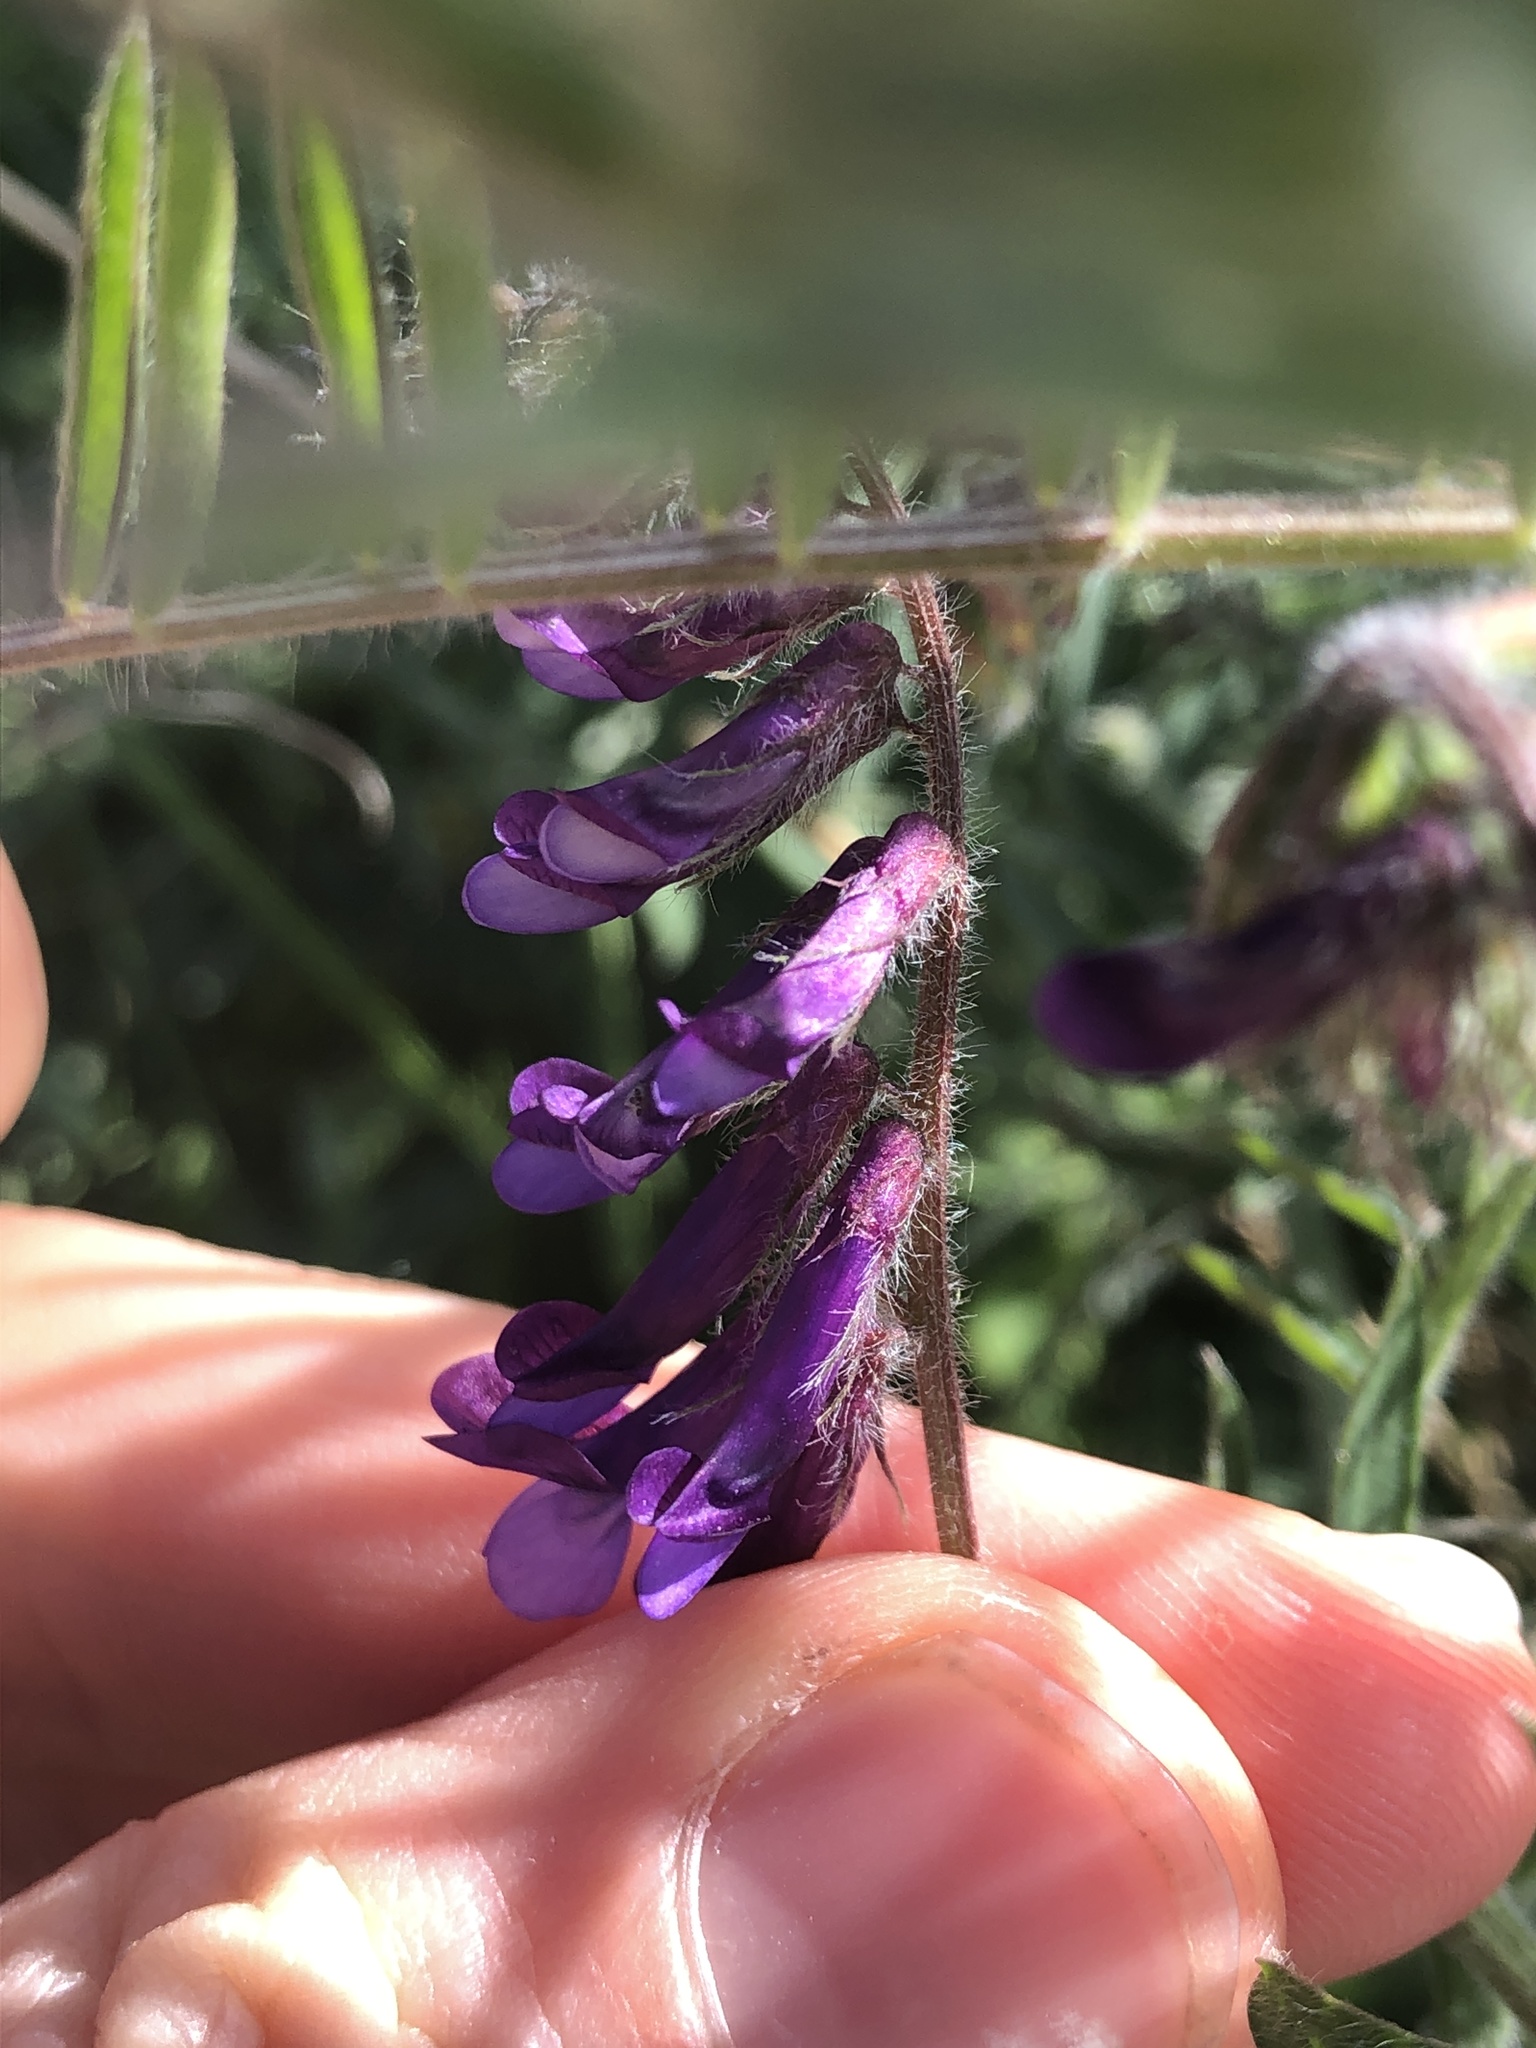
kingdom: Plantae
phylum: Tracheophyta
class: Magnoliopsida
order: Fabales
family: Fabaceae
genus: Vicia
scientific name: Vicia villosa
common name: Fodder vetch
